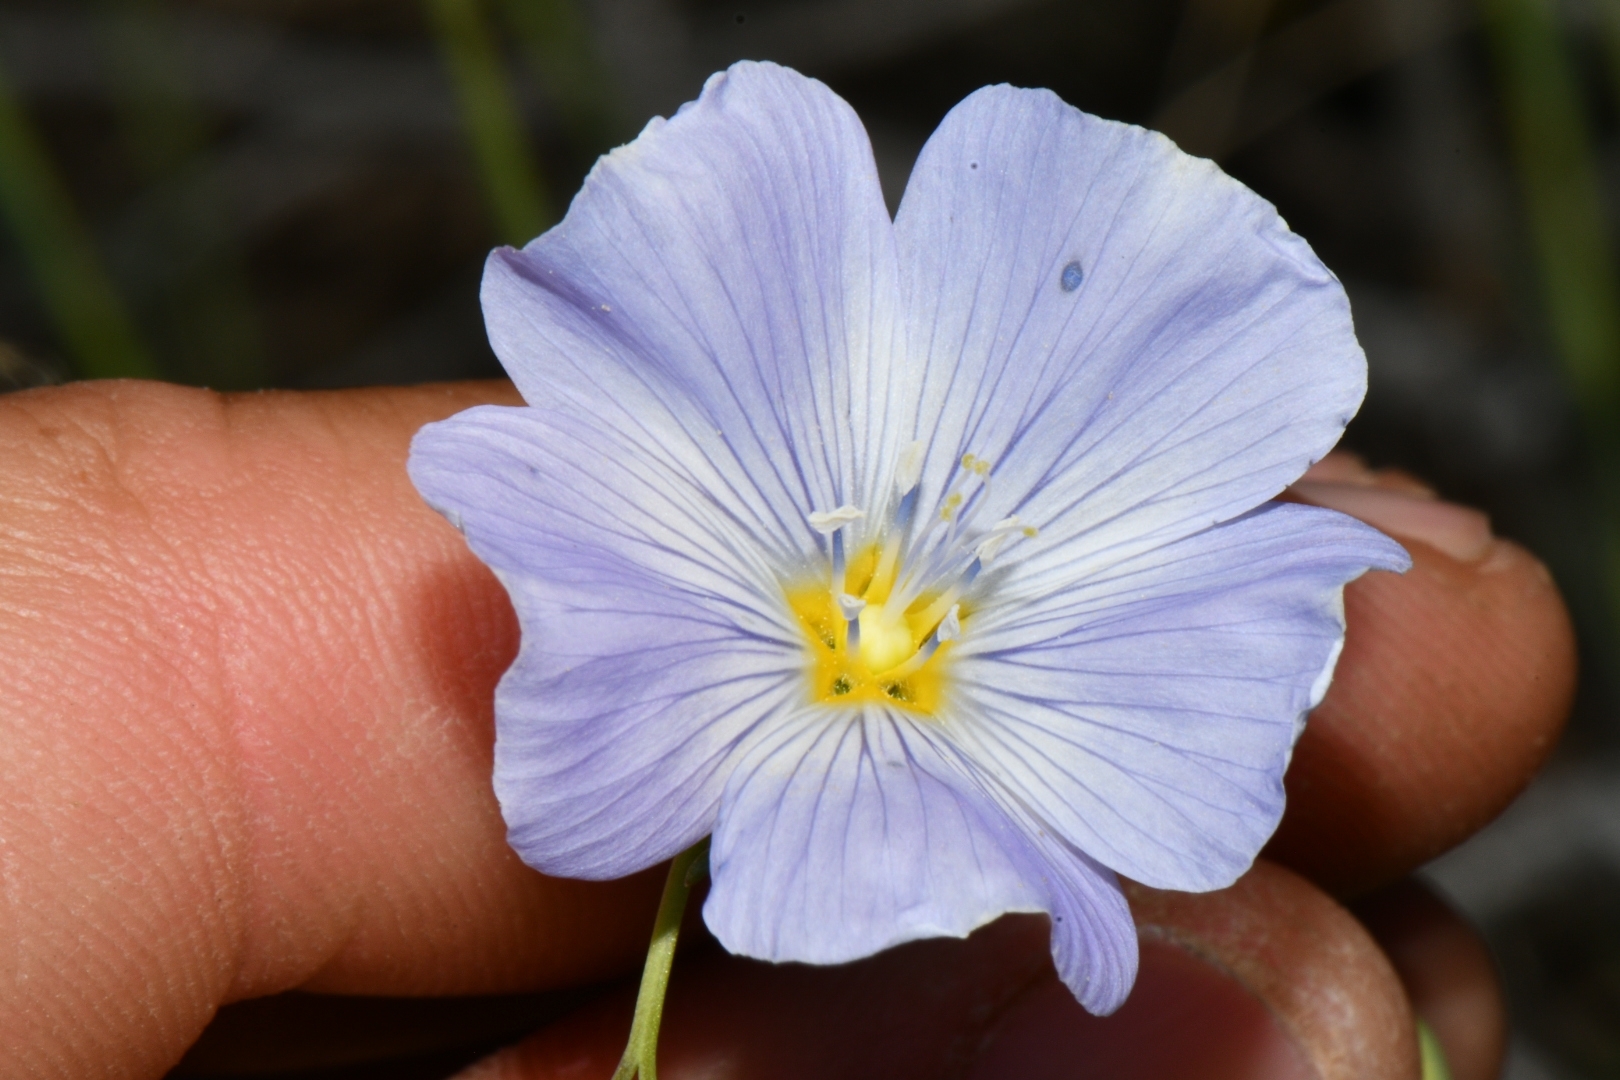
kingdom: Plantae
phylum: Tracheophyta
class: Magnoliopsida
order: Malpighiales
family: Linaceae
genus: Linum
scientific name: Linum lewisii
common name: Prairie flax
